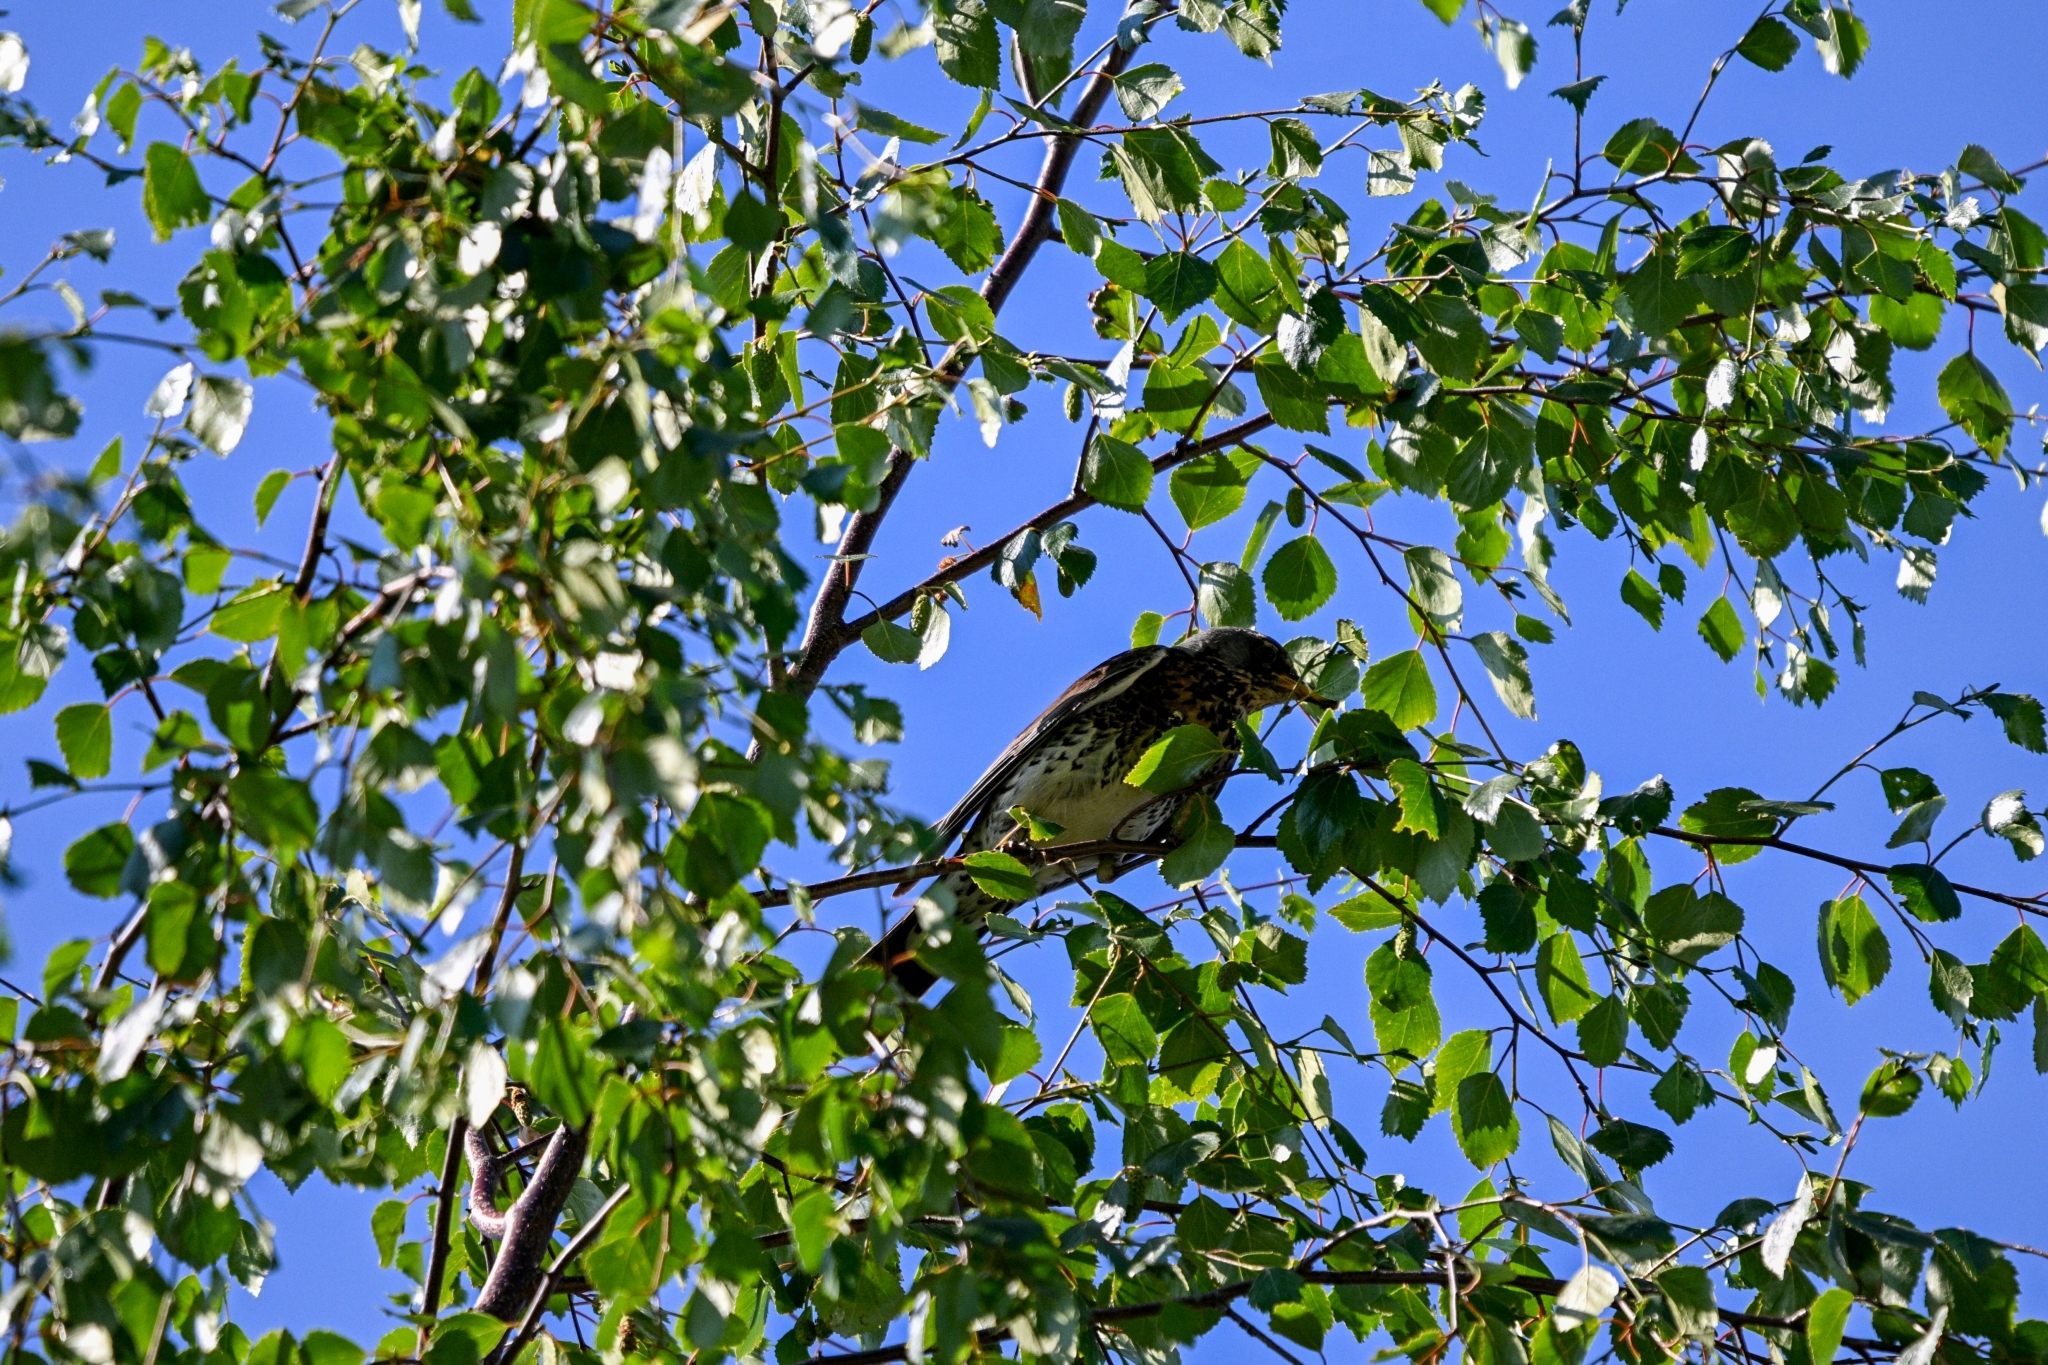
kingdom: Animalia
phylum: Chordata
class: Aves
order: Passeriformes
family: Turdidae
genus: Turdus
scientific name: Turdus pilaris
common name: Fieldfare
